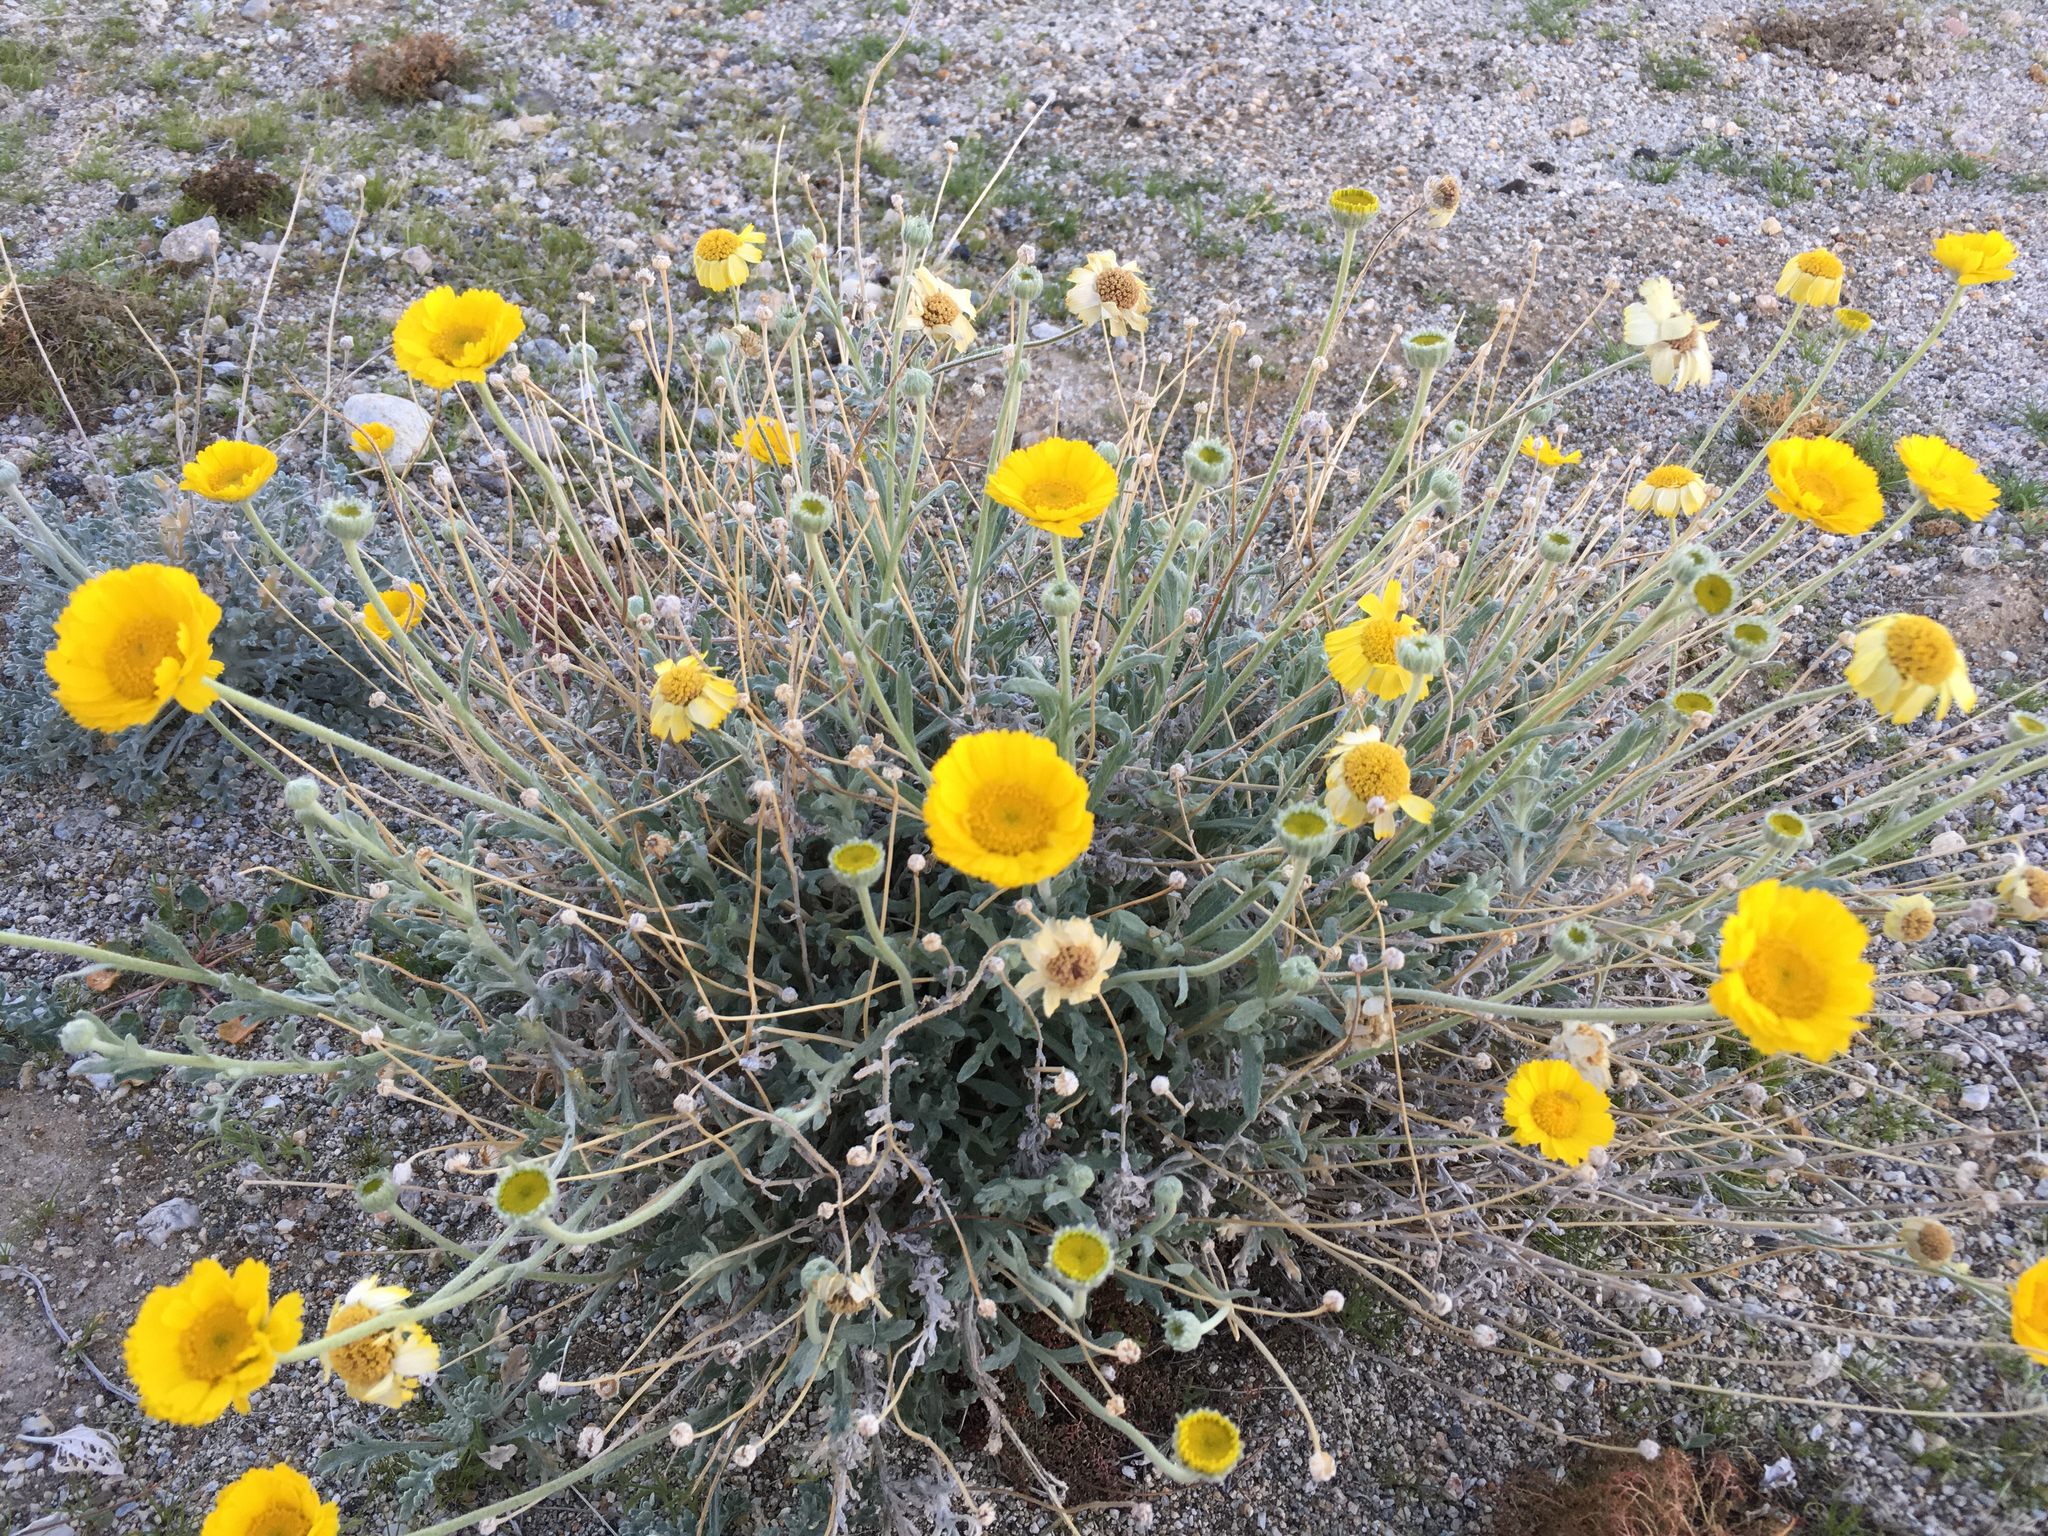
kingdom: Plantae
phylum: Tracheophyta
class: Magnoliopsida
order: Asterales
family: Asteraceae
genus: Baileya
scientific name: Baileya multiradiata
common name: Desert-marigold
